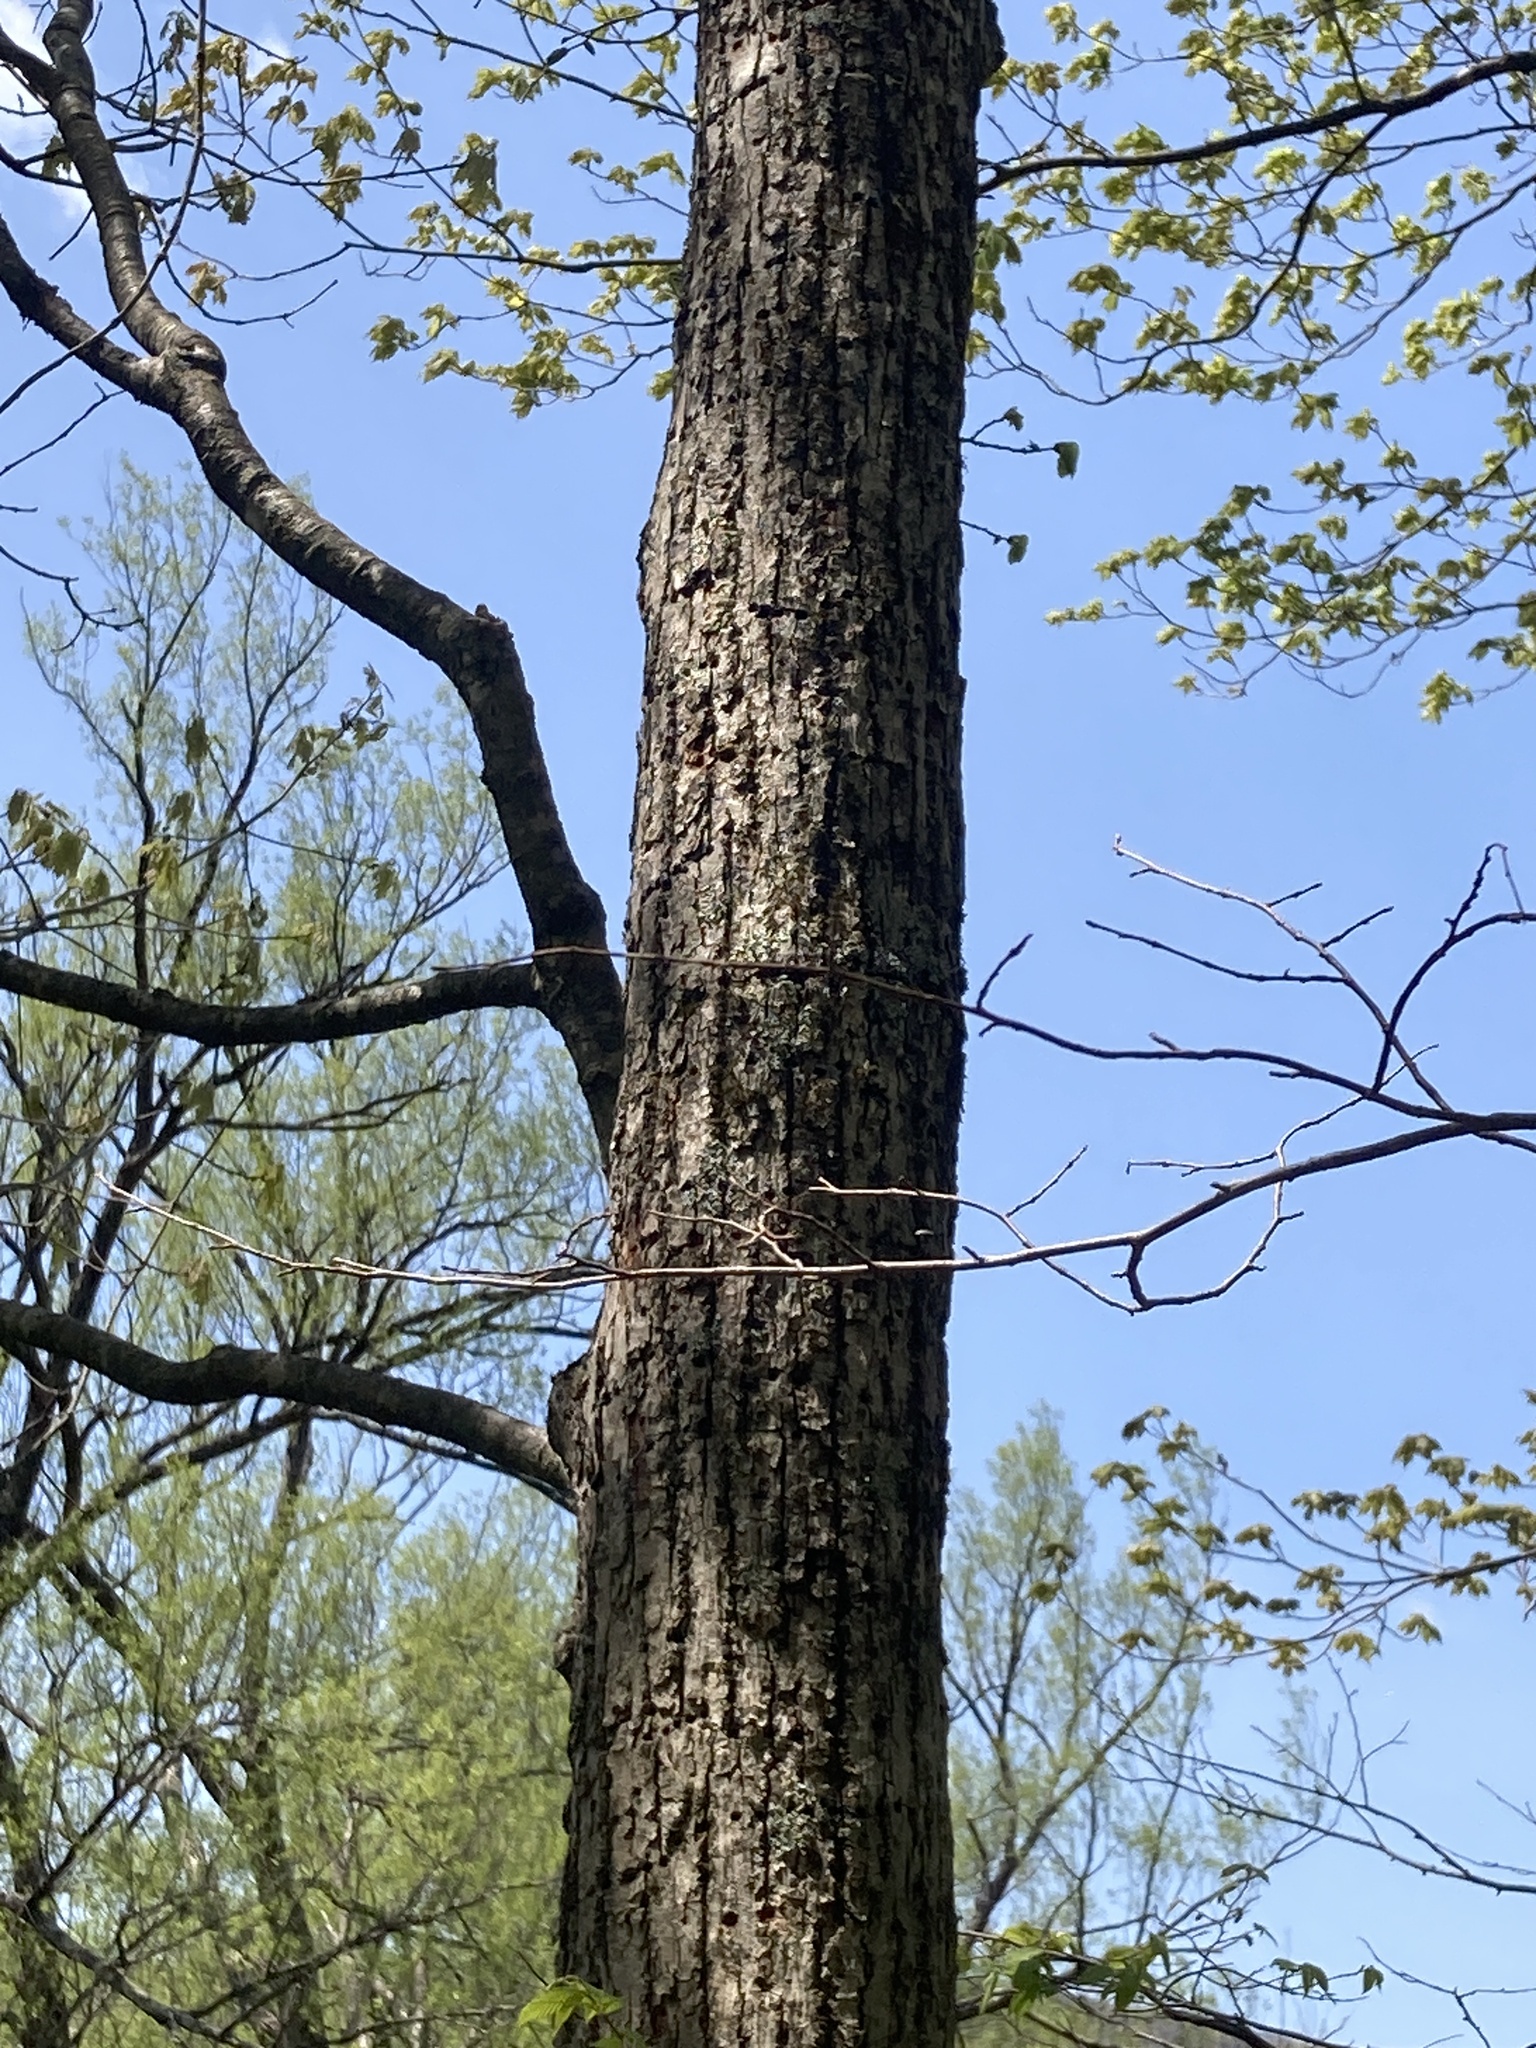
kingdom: Plantae
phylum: Tracheophyta
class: Magnoliopsida
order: Malvales
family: Malvaceae
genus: Tilia
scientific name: Tilia americana
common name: Basswood
